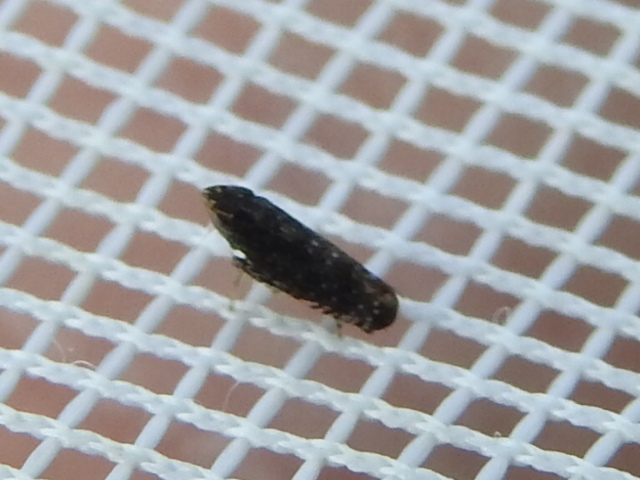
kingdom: Animalia
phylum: Arthropoda
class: Insecta
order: Hemiptera
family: Cicadellidae
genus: Scaphytopius
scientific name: Scaphytopius frontalis
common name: The yellow-faced leafhopper
